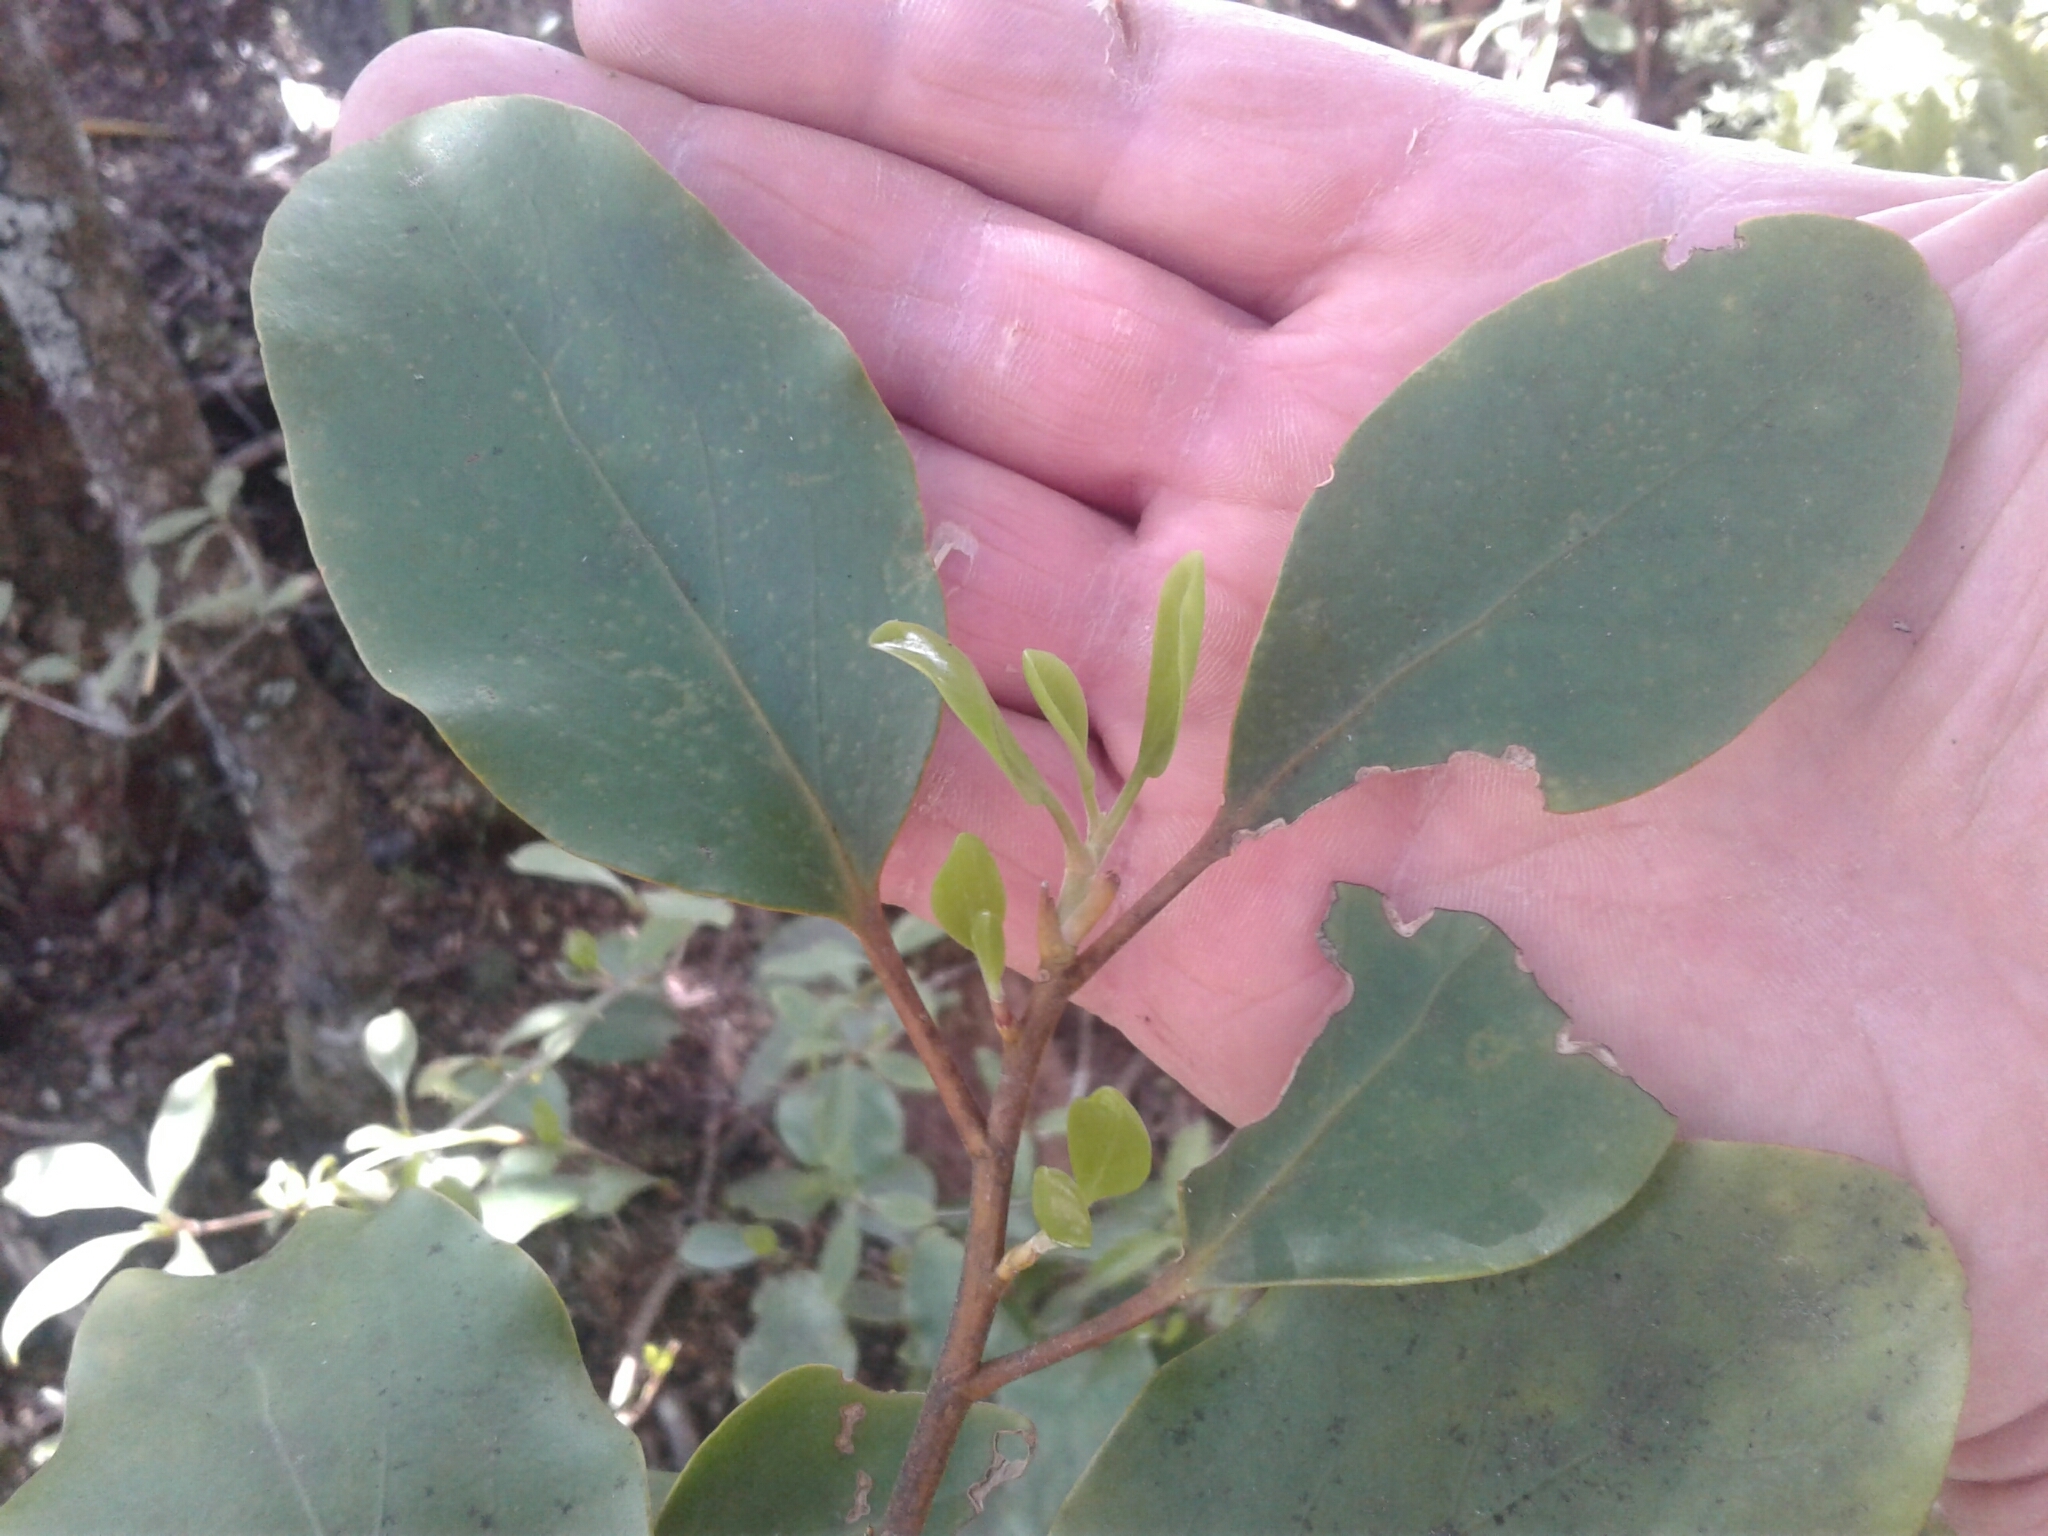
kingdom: Plantae
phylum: Tracheophyta
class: Magnoliopsida
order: Apiales
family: Griseliniaceae
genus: Griselinia
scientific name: Griselinia littoralis
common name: New zealand broadleaf
